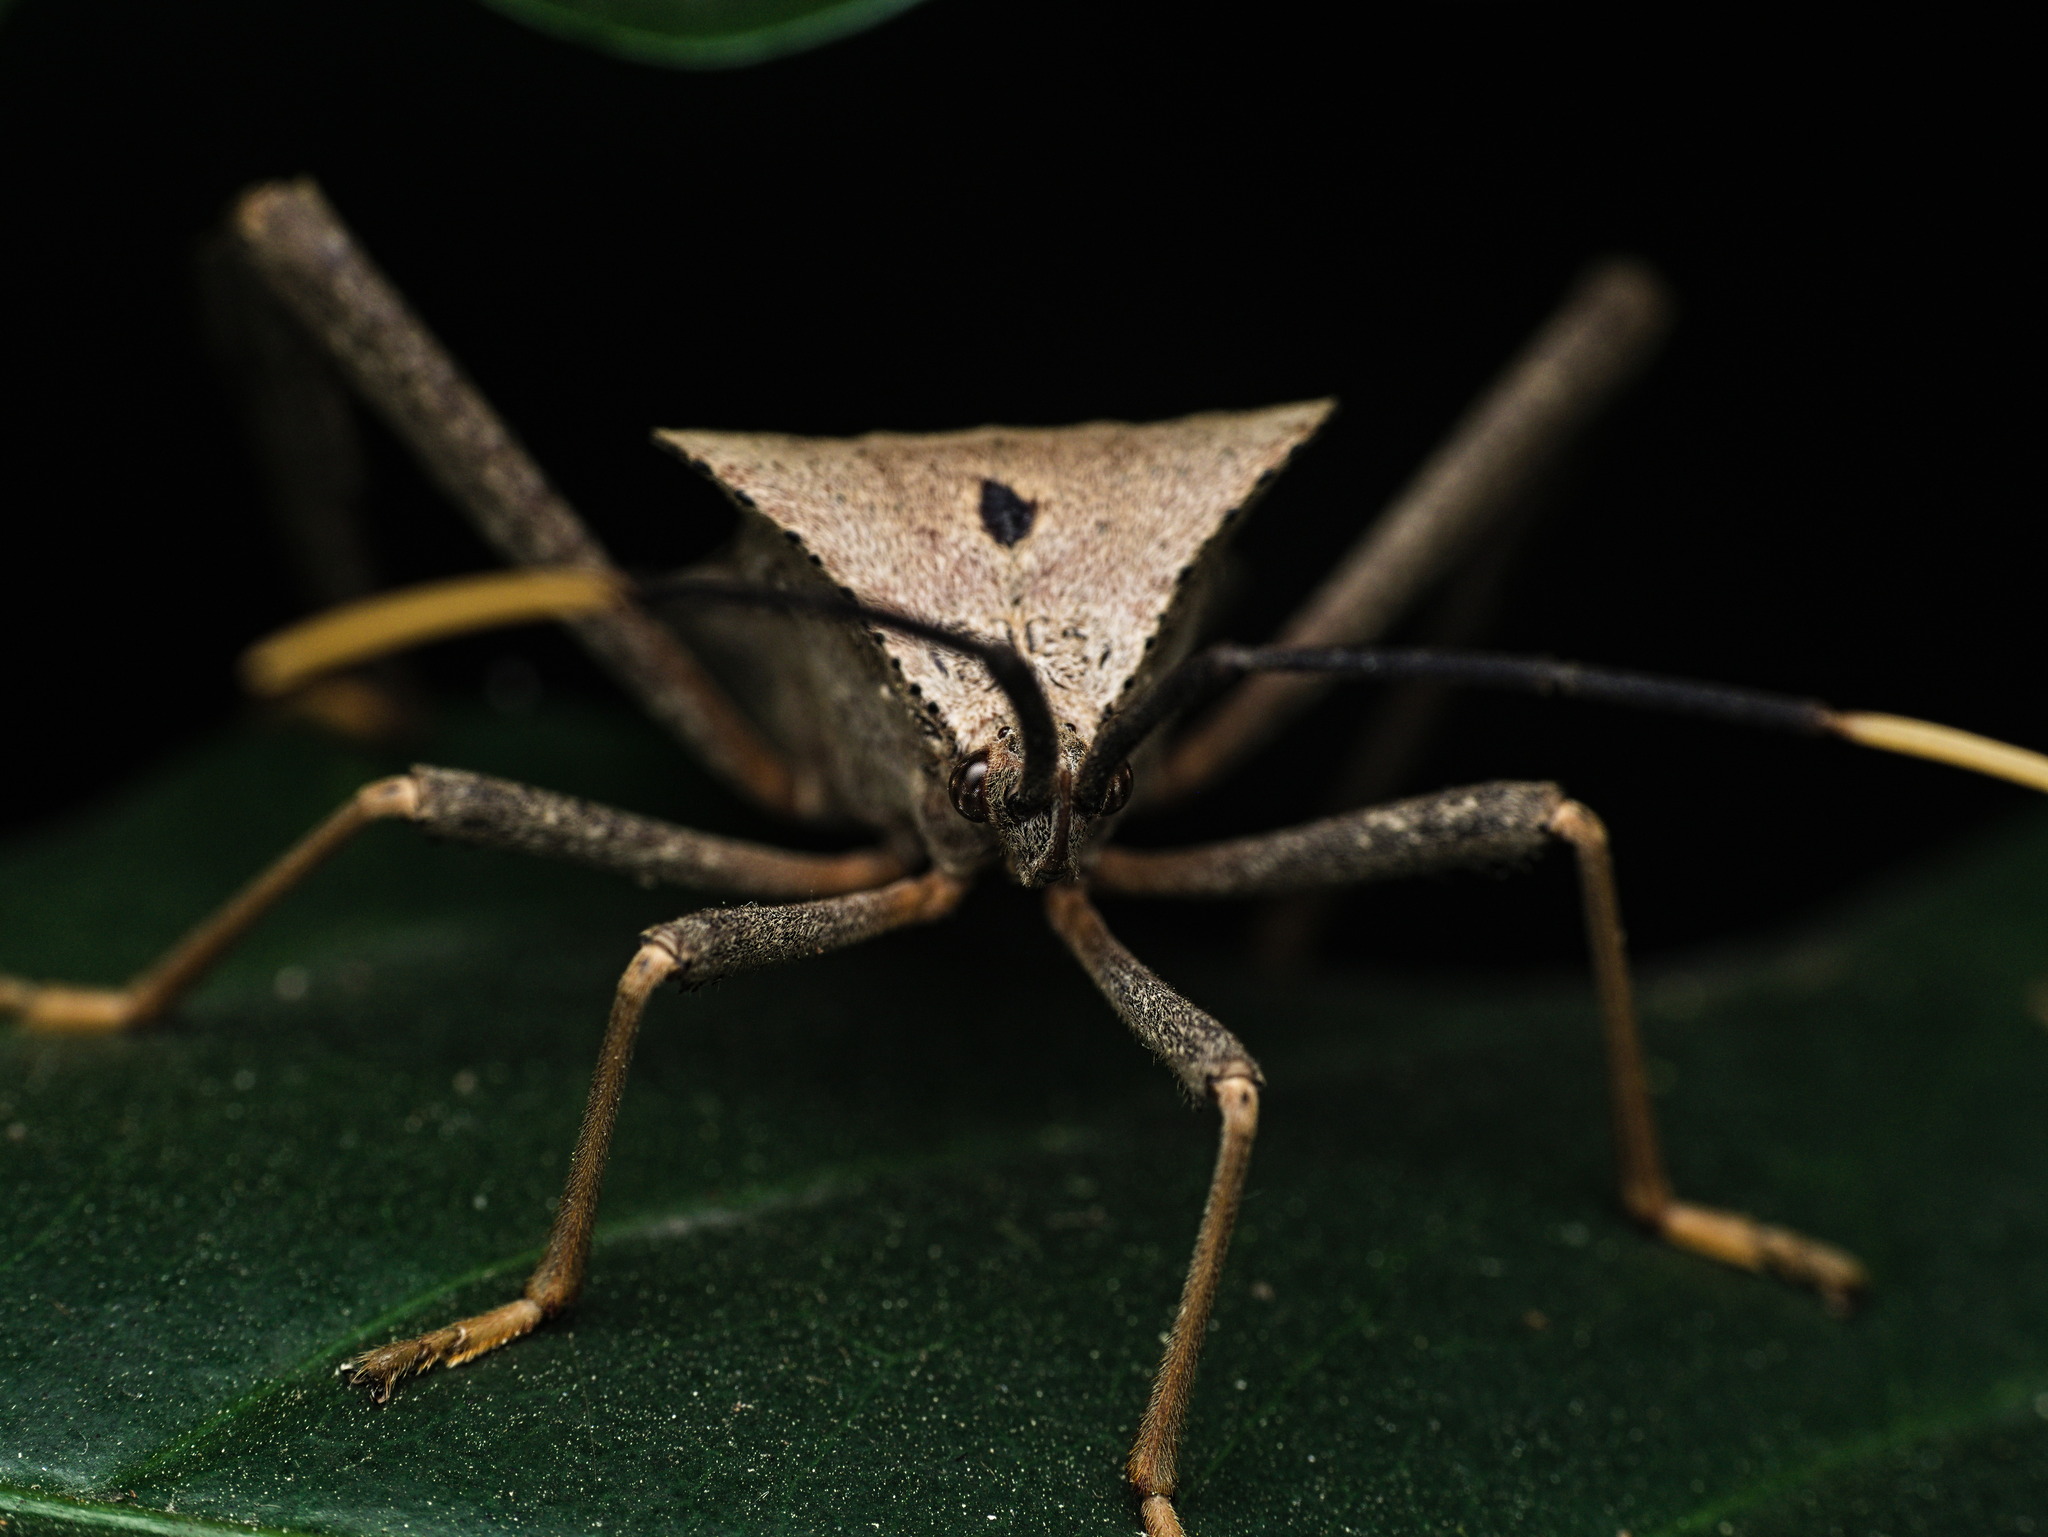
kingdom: Animalia
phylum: Arthropoda
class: Insecta
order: Hemiptera
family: Coreidae
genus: Acanthocephala
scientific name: Acanthocephala alata
